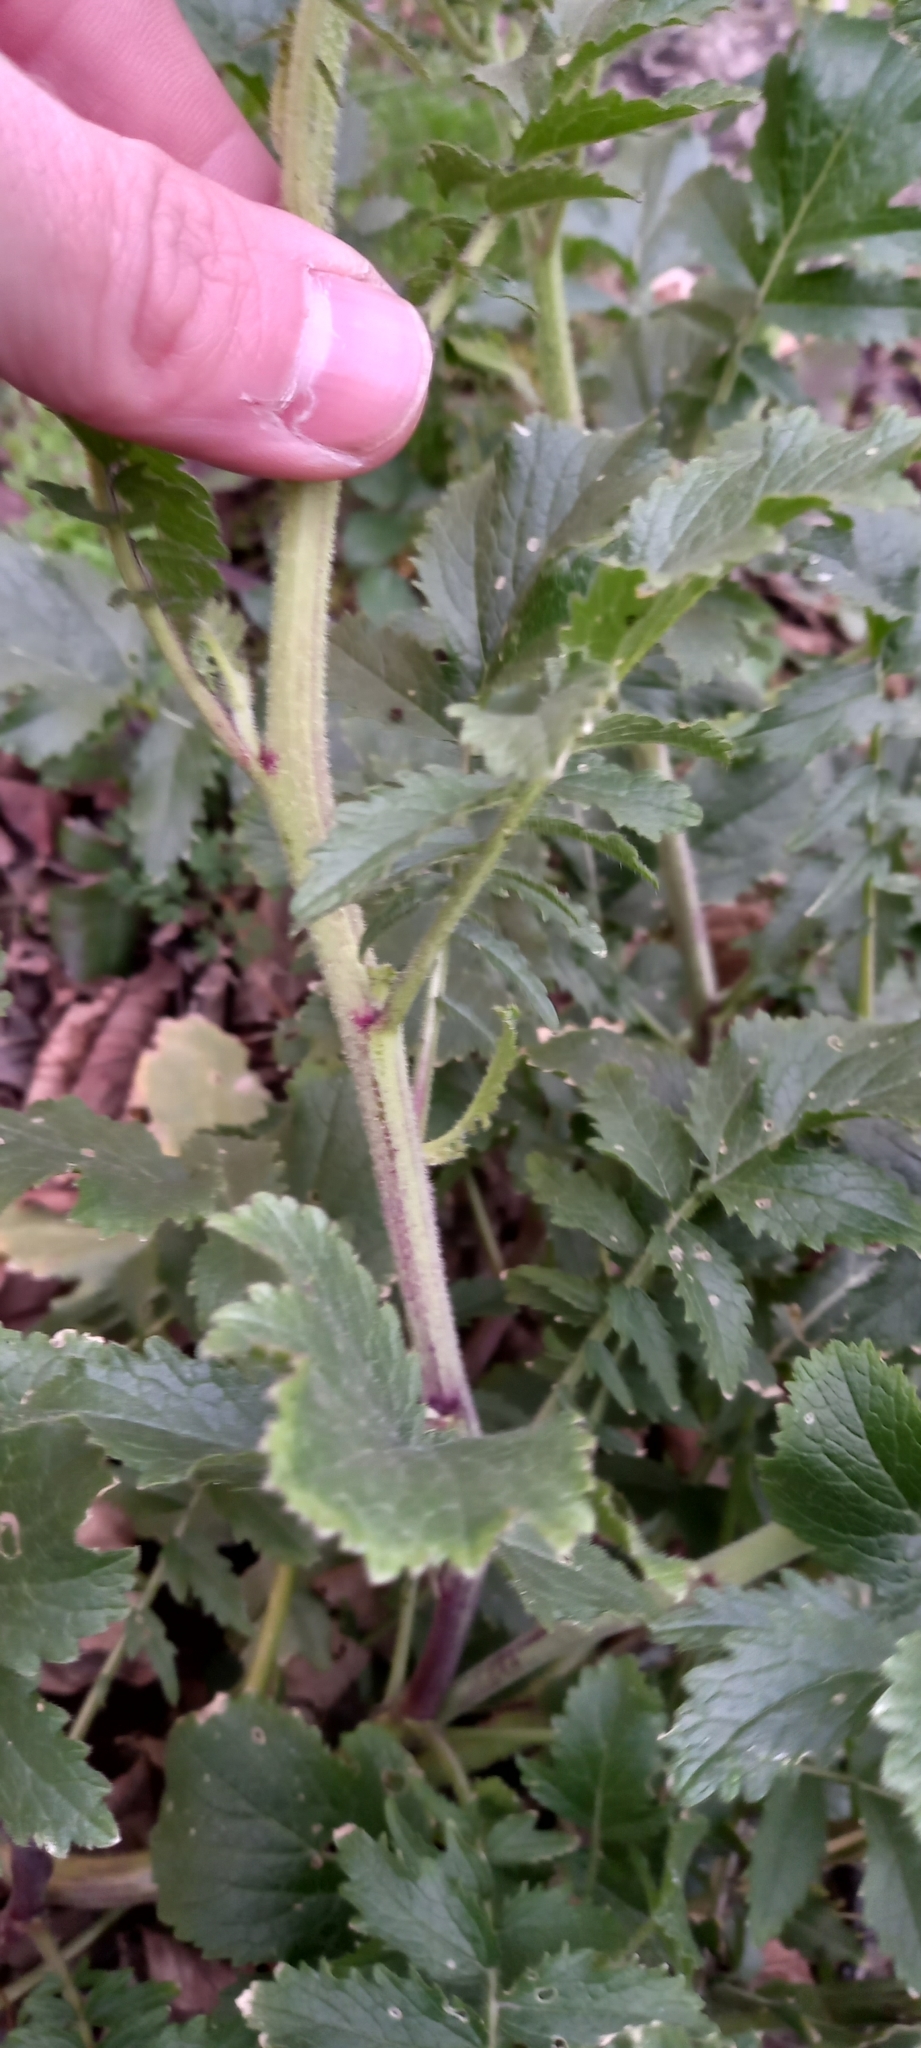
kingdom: Plantae
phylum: Tracheophyta
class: Magnoliopsida
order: Brassicales
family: Brassicaceae
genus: Raphanus
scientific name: Raphanus raphanistrum
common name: Wild radish
